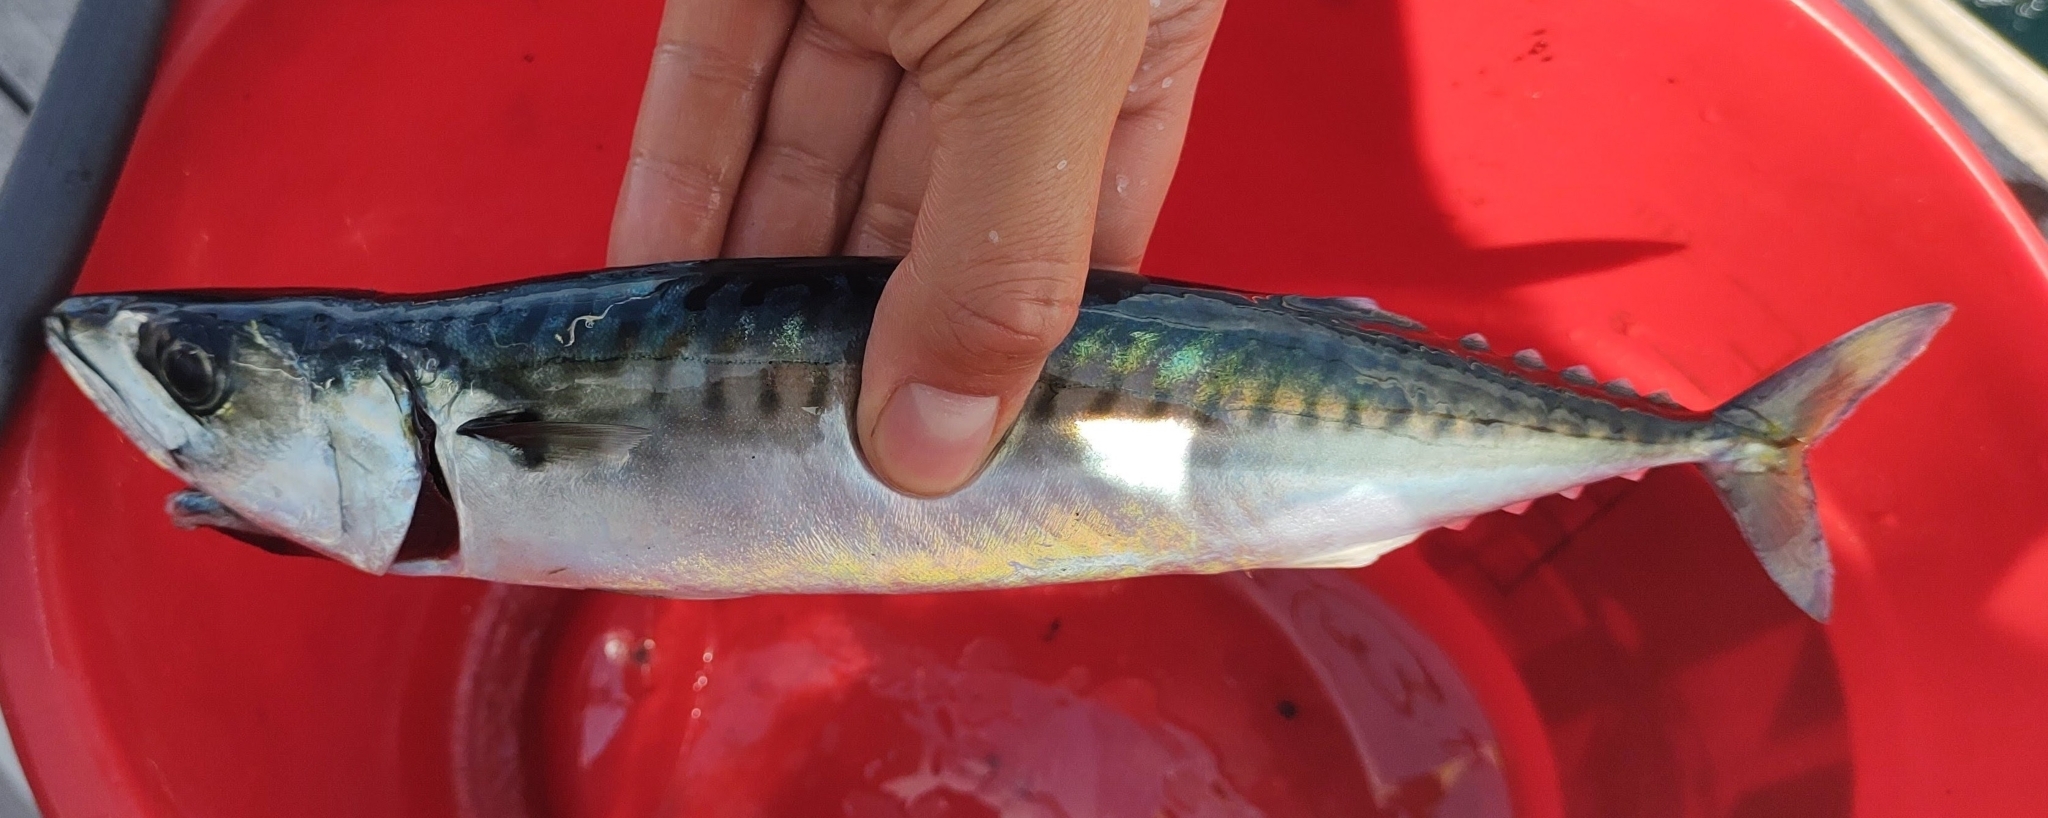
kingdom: Animalia
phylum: Chordata
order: Perciformes
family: Scombridae
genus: Scomber
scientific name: Scomber scombrus
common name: Mackerel
